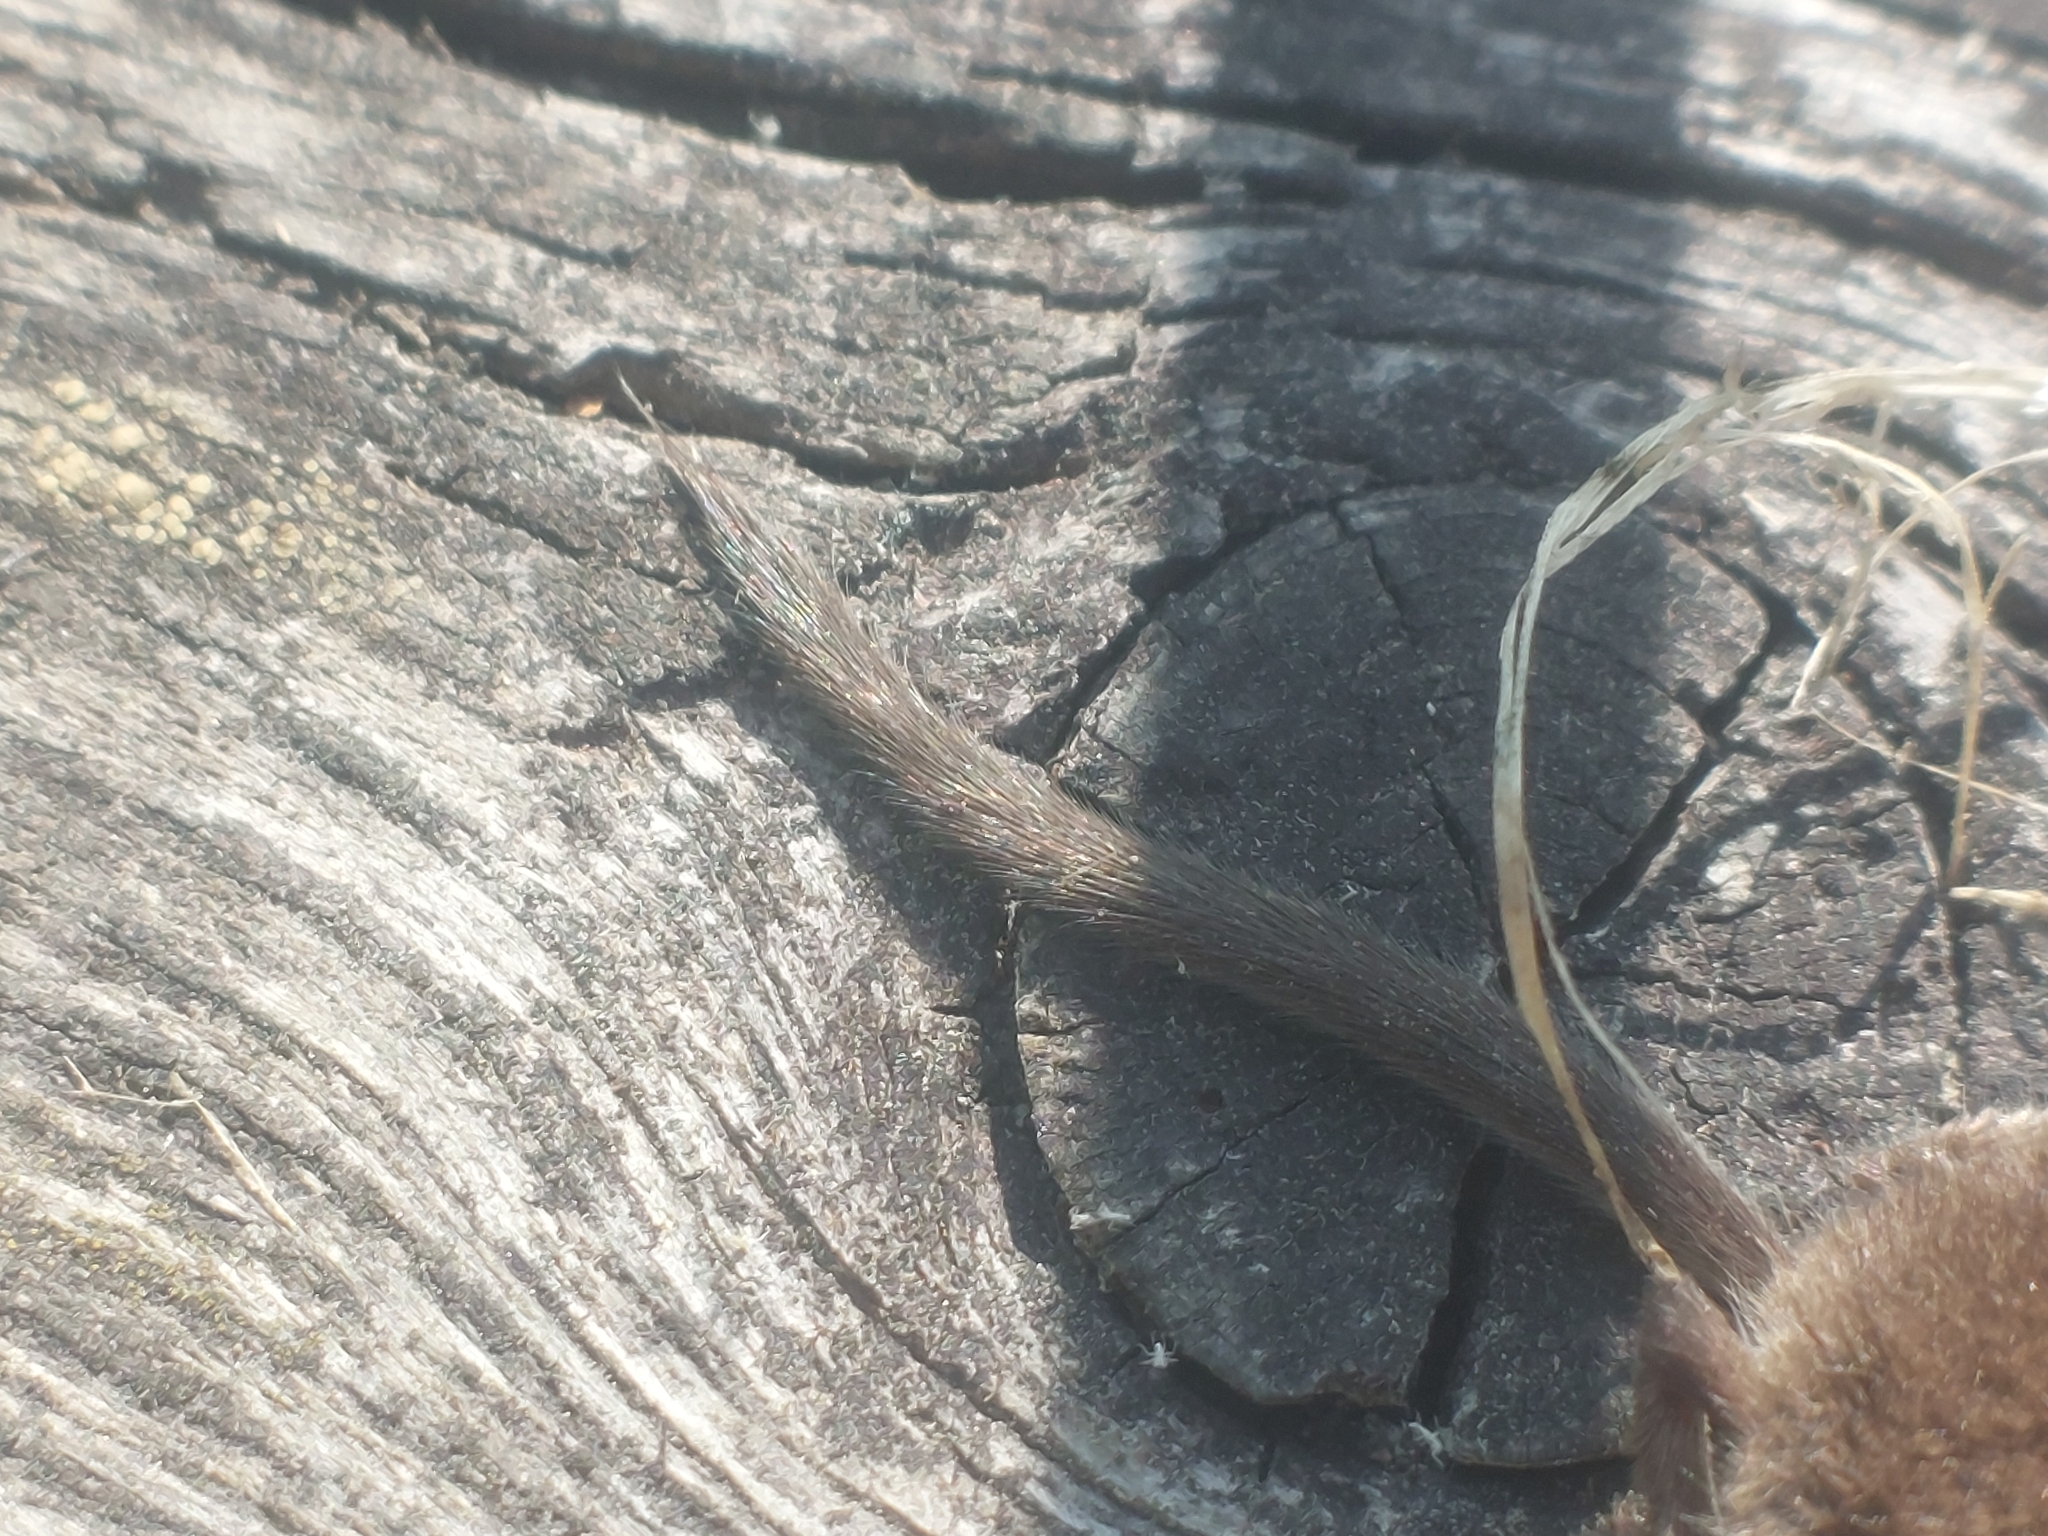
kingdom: Animalia
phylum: Chordata
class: Mammalia
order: Soricomorpha
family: Soricidae
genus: Sorex
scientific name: Sorex araneus
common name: Common shrew
